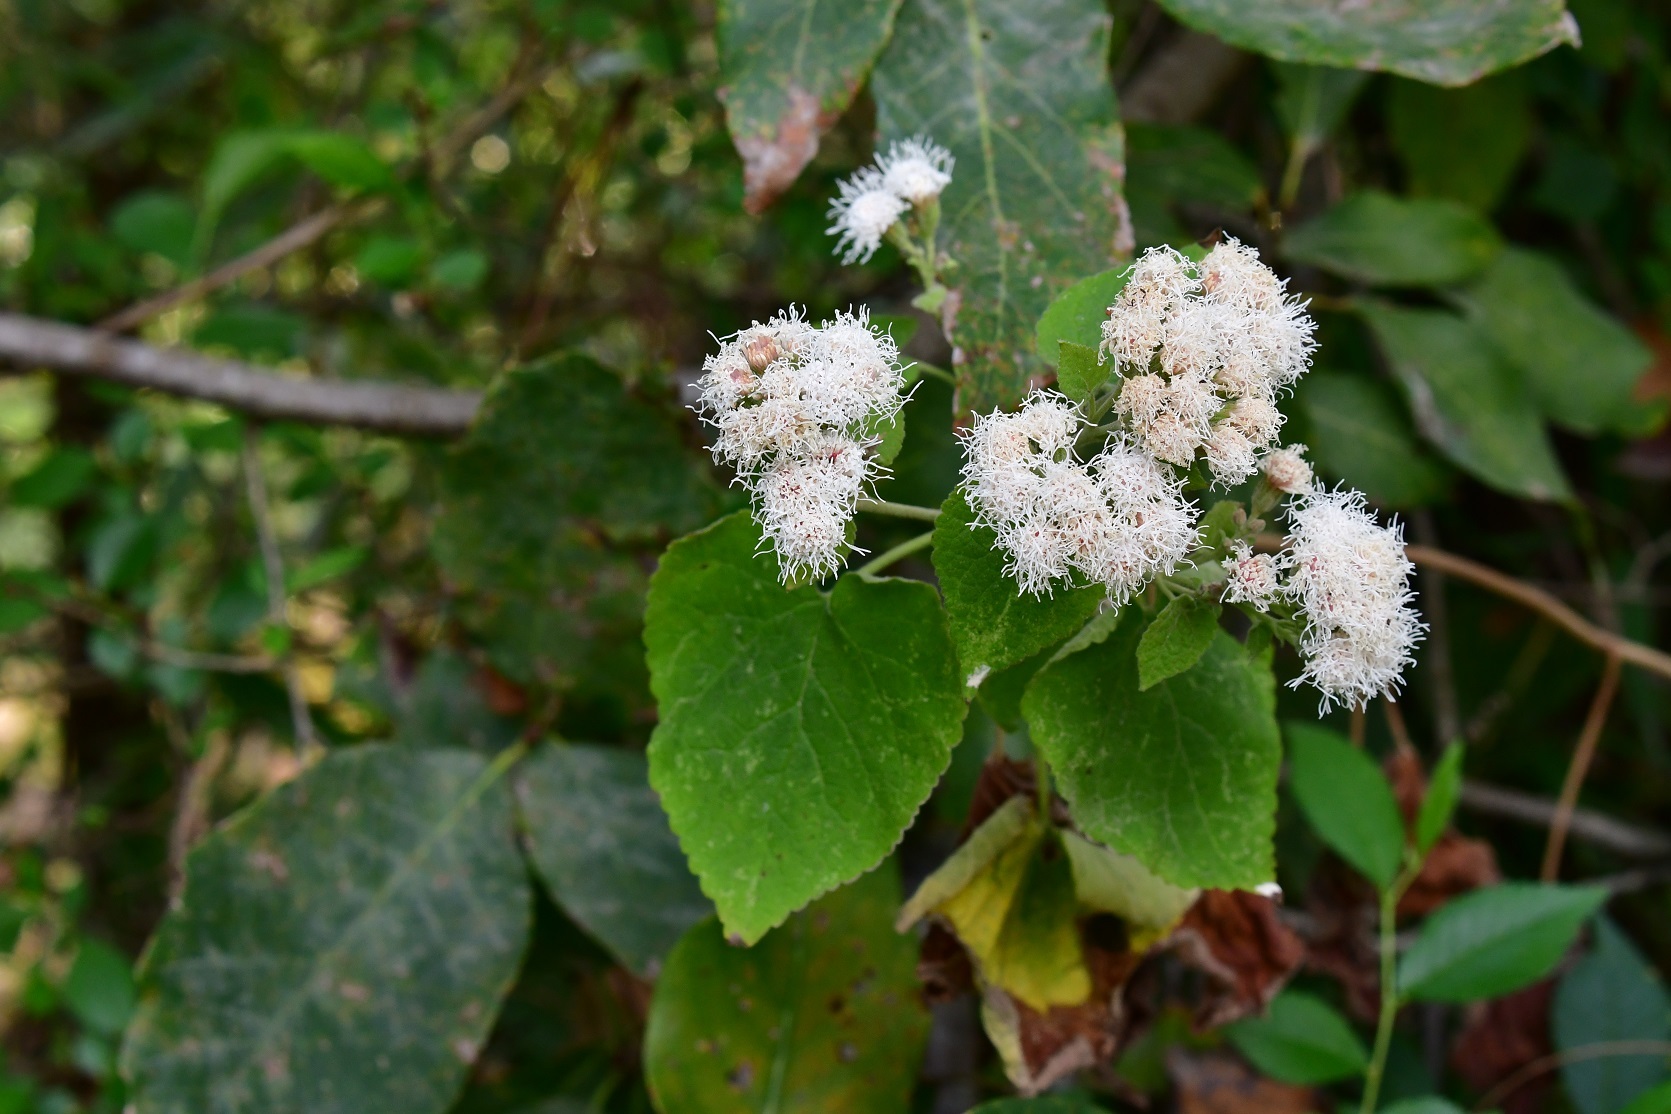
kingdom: Plantae
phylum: Tracheophyta
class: Magnoliopsida
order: Asterales
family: Asteraceae
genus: Ageratina
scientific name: Ageratina petiolaris
